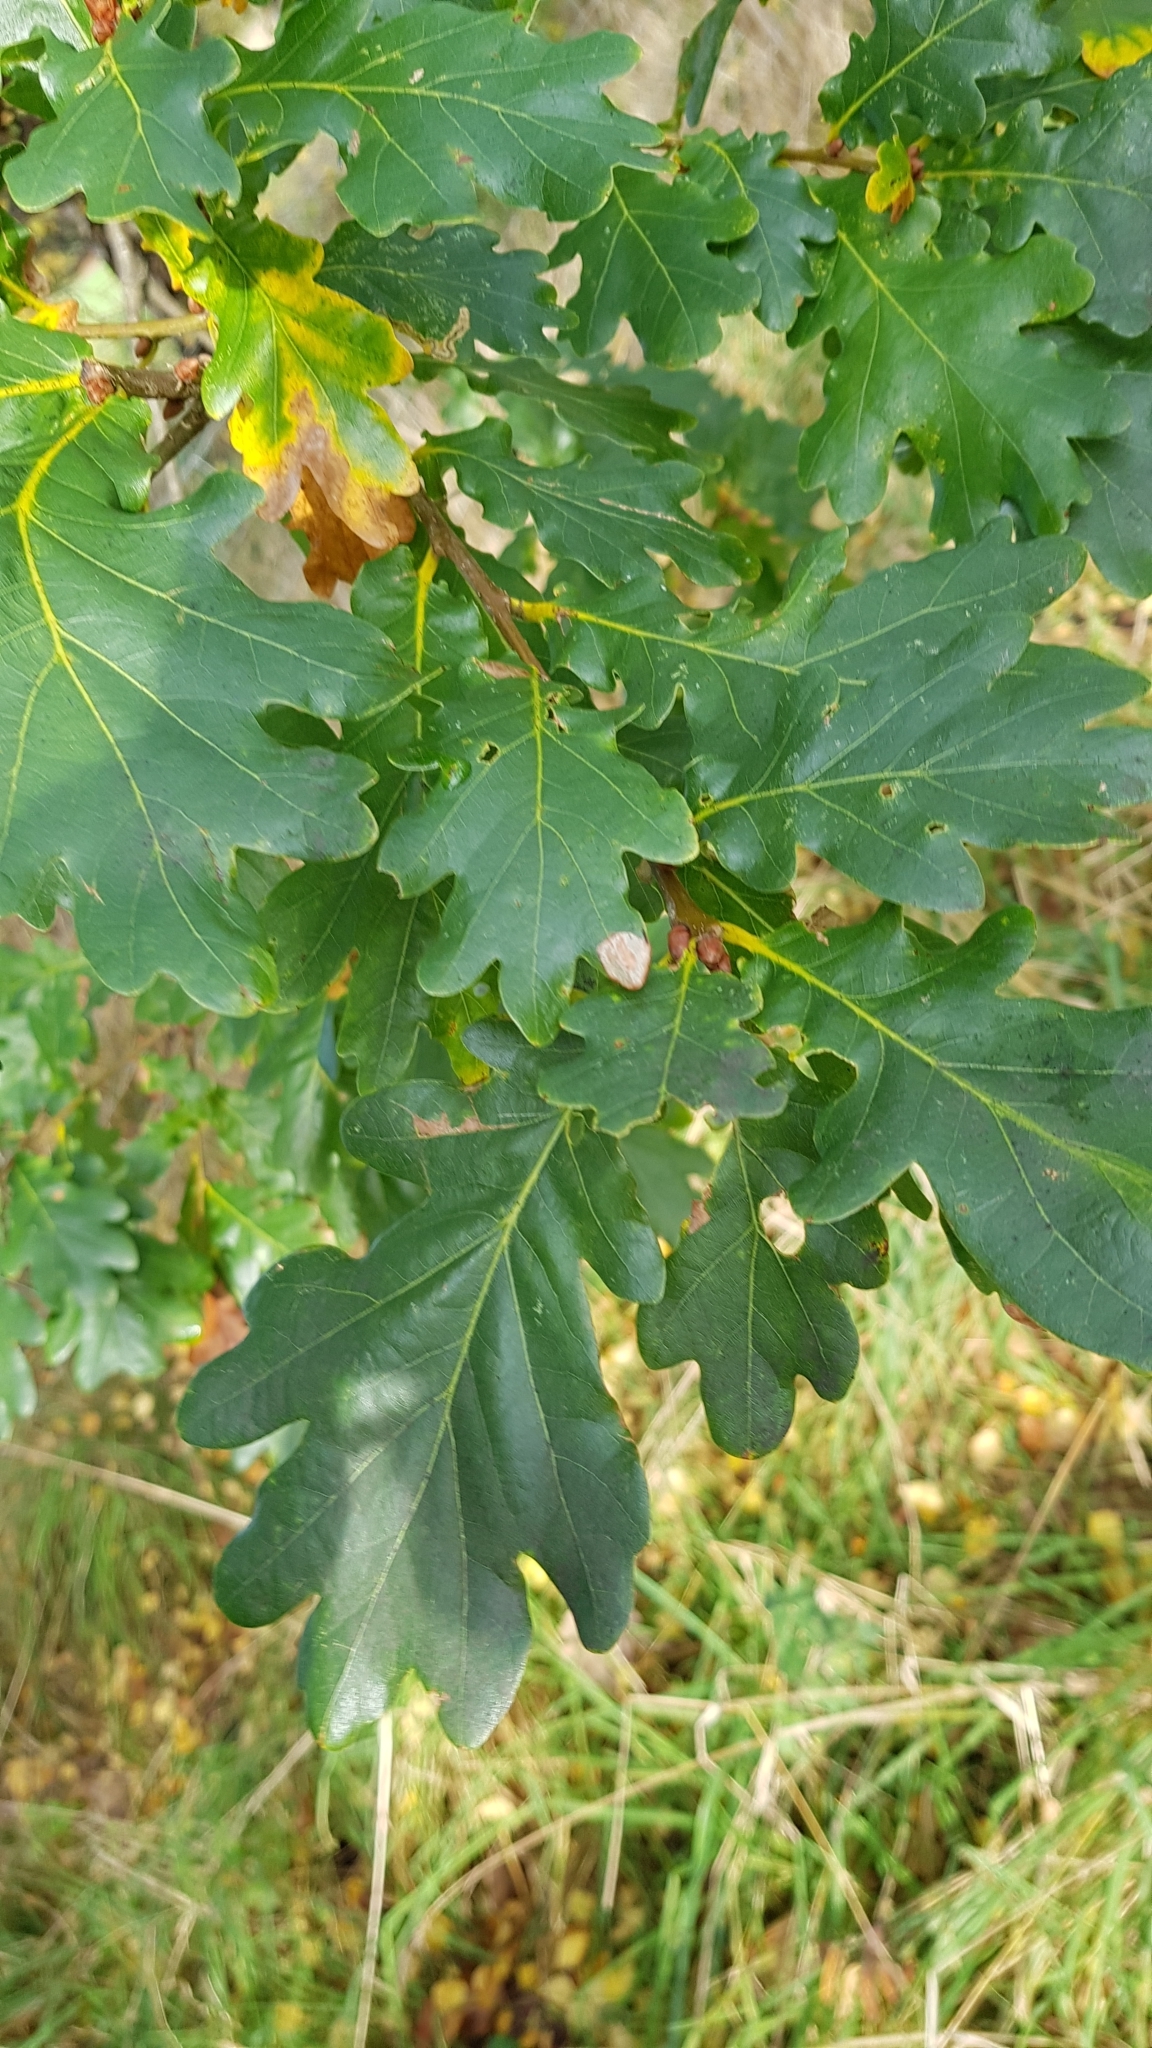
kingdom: Plantae
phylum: Tracheophyta
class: Magnoliopsida
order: Fagales
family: Fagaceae
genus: Quercus
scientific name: Quercus robur
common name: Pedunculate oak
